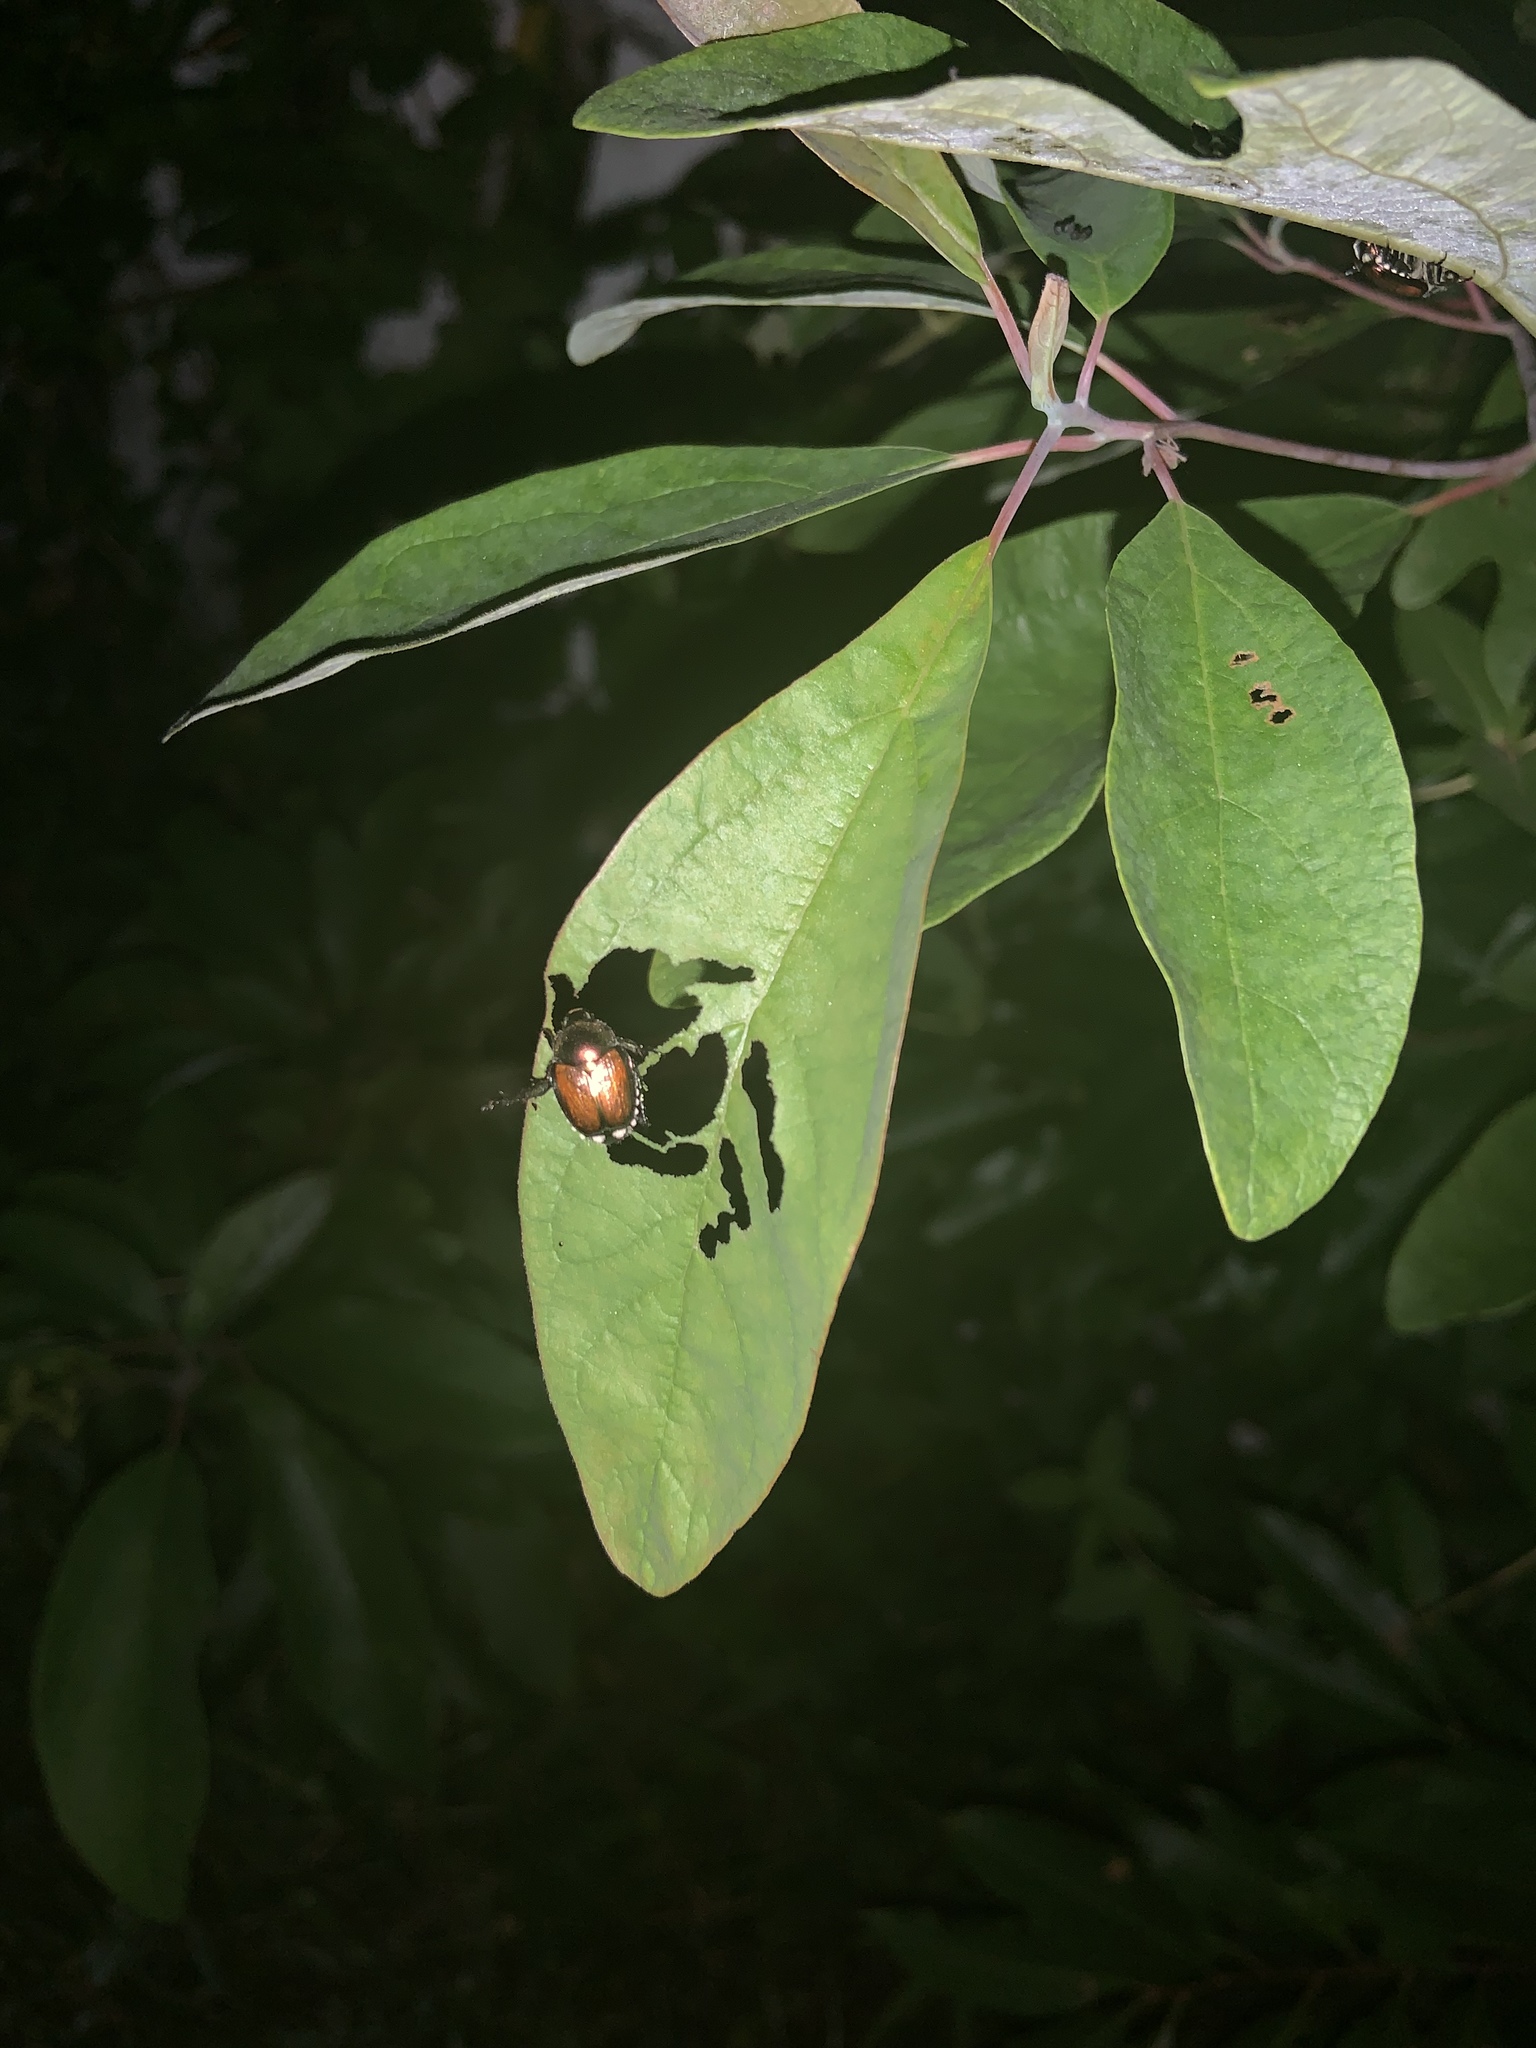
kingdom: Animalia
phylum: Arthropoda
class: Insecta
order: Coleoptera
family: Scarabaeidae
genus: Popillia
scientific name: Popillia japonica
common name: Japanese beetle
